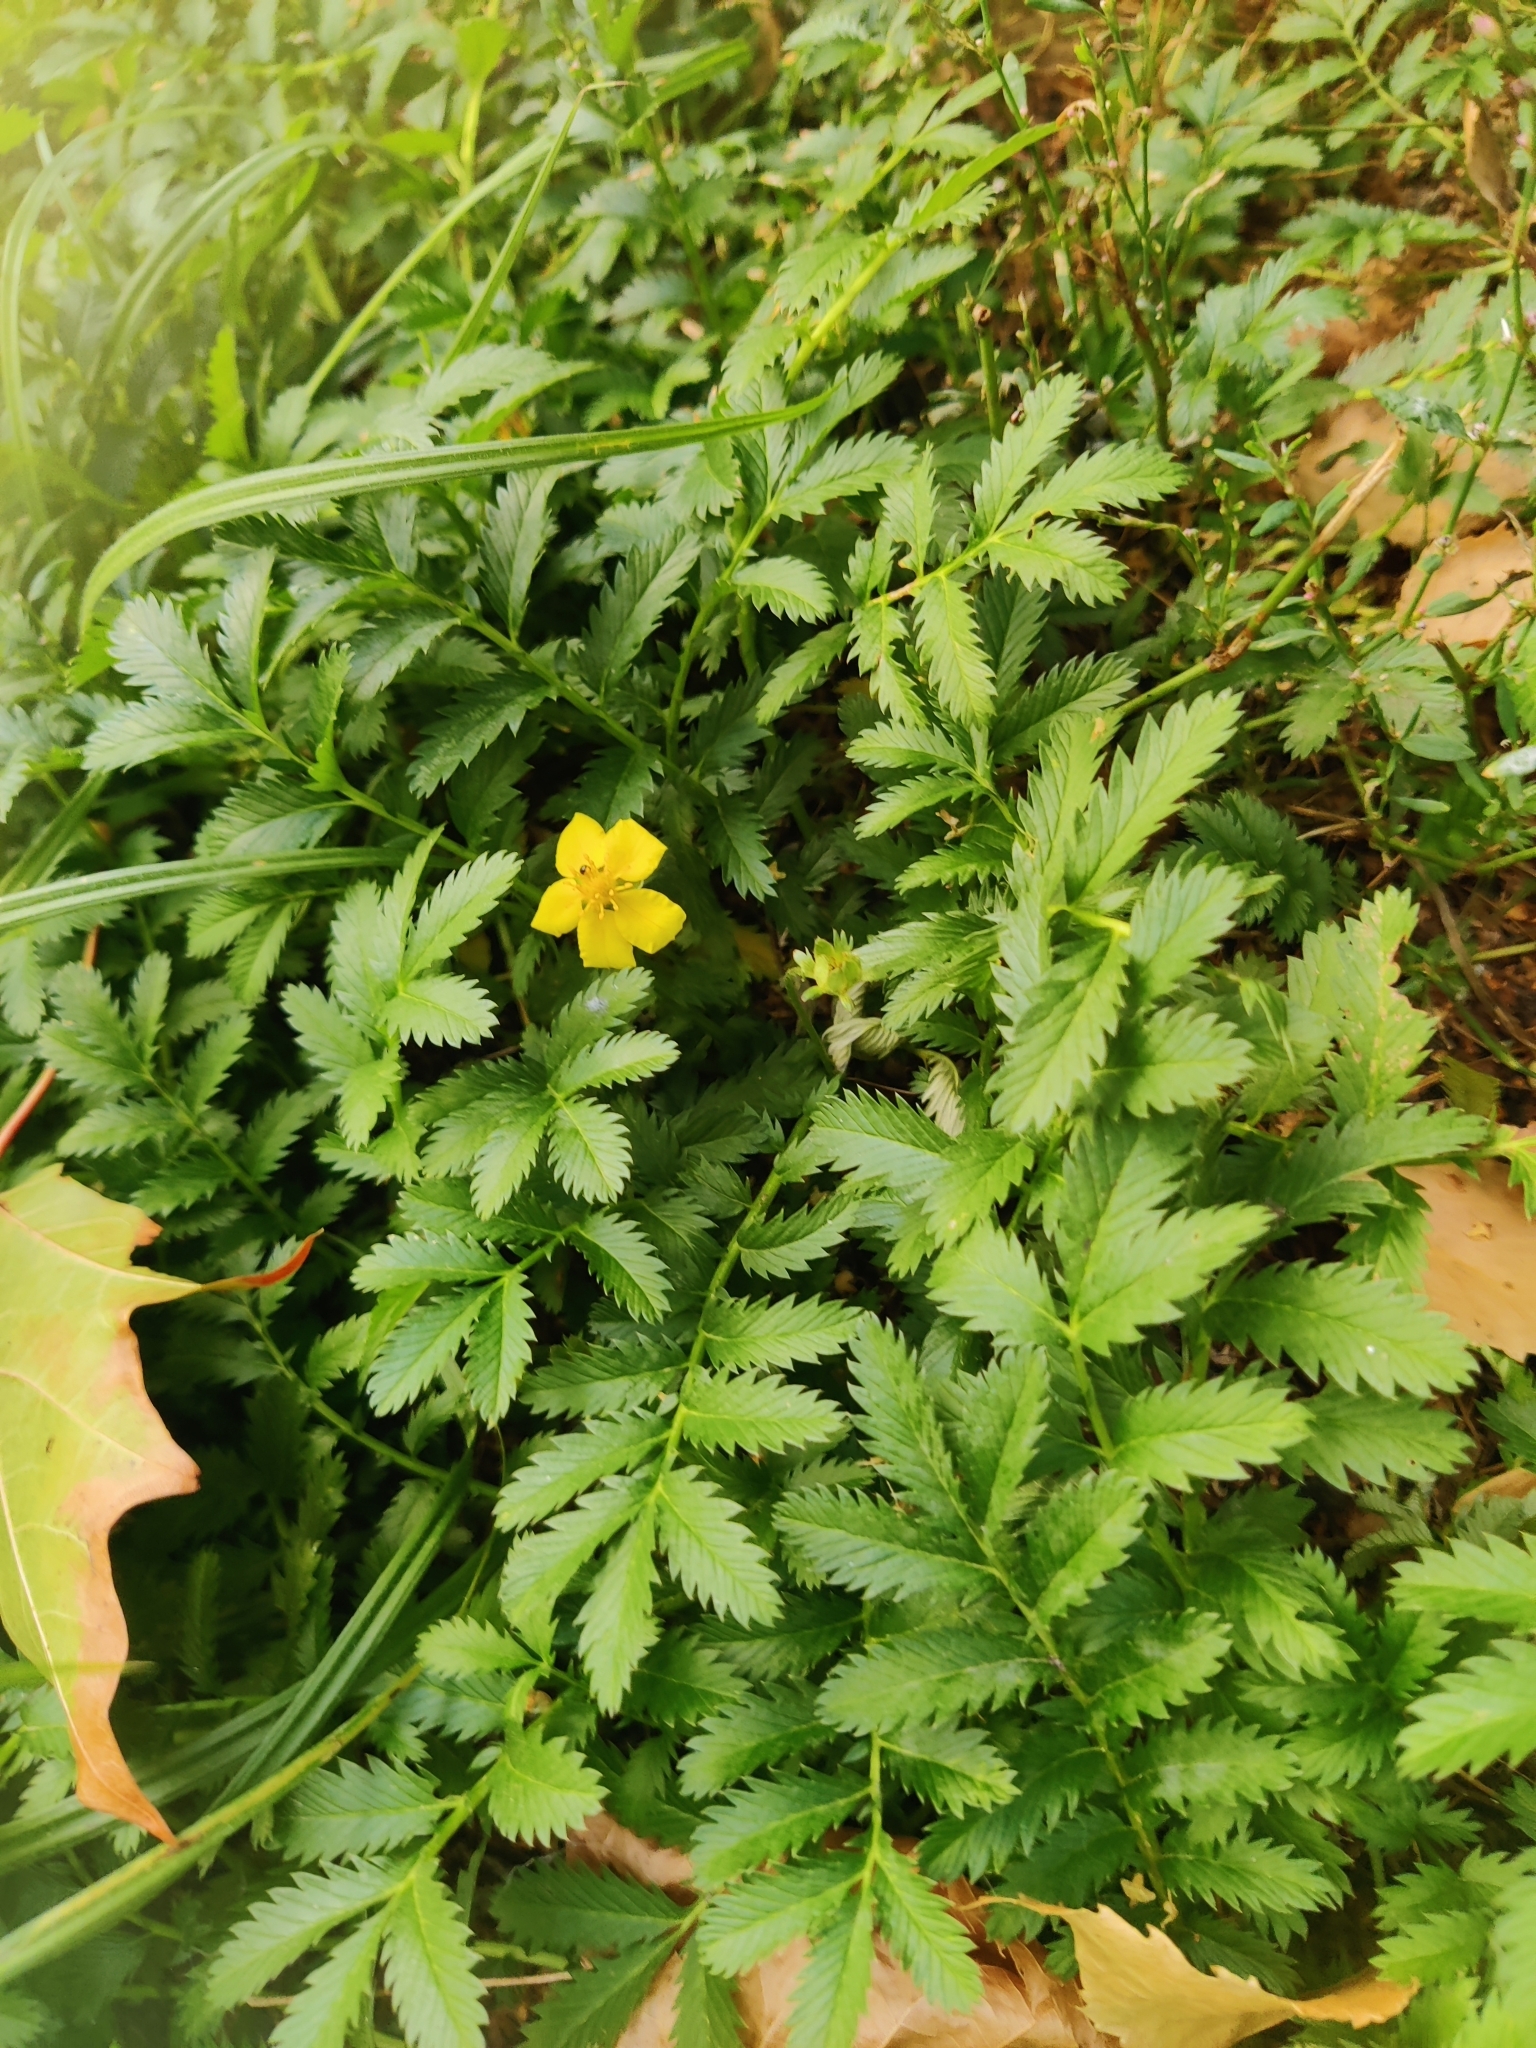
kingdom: Plantae
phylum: Tracheophyta
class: Magnoliopsida
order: Rosales
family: Rosaceae
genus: Argentina
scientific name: Argentina anserina
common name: Common silverweed
